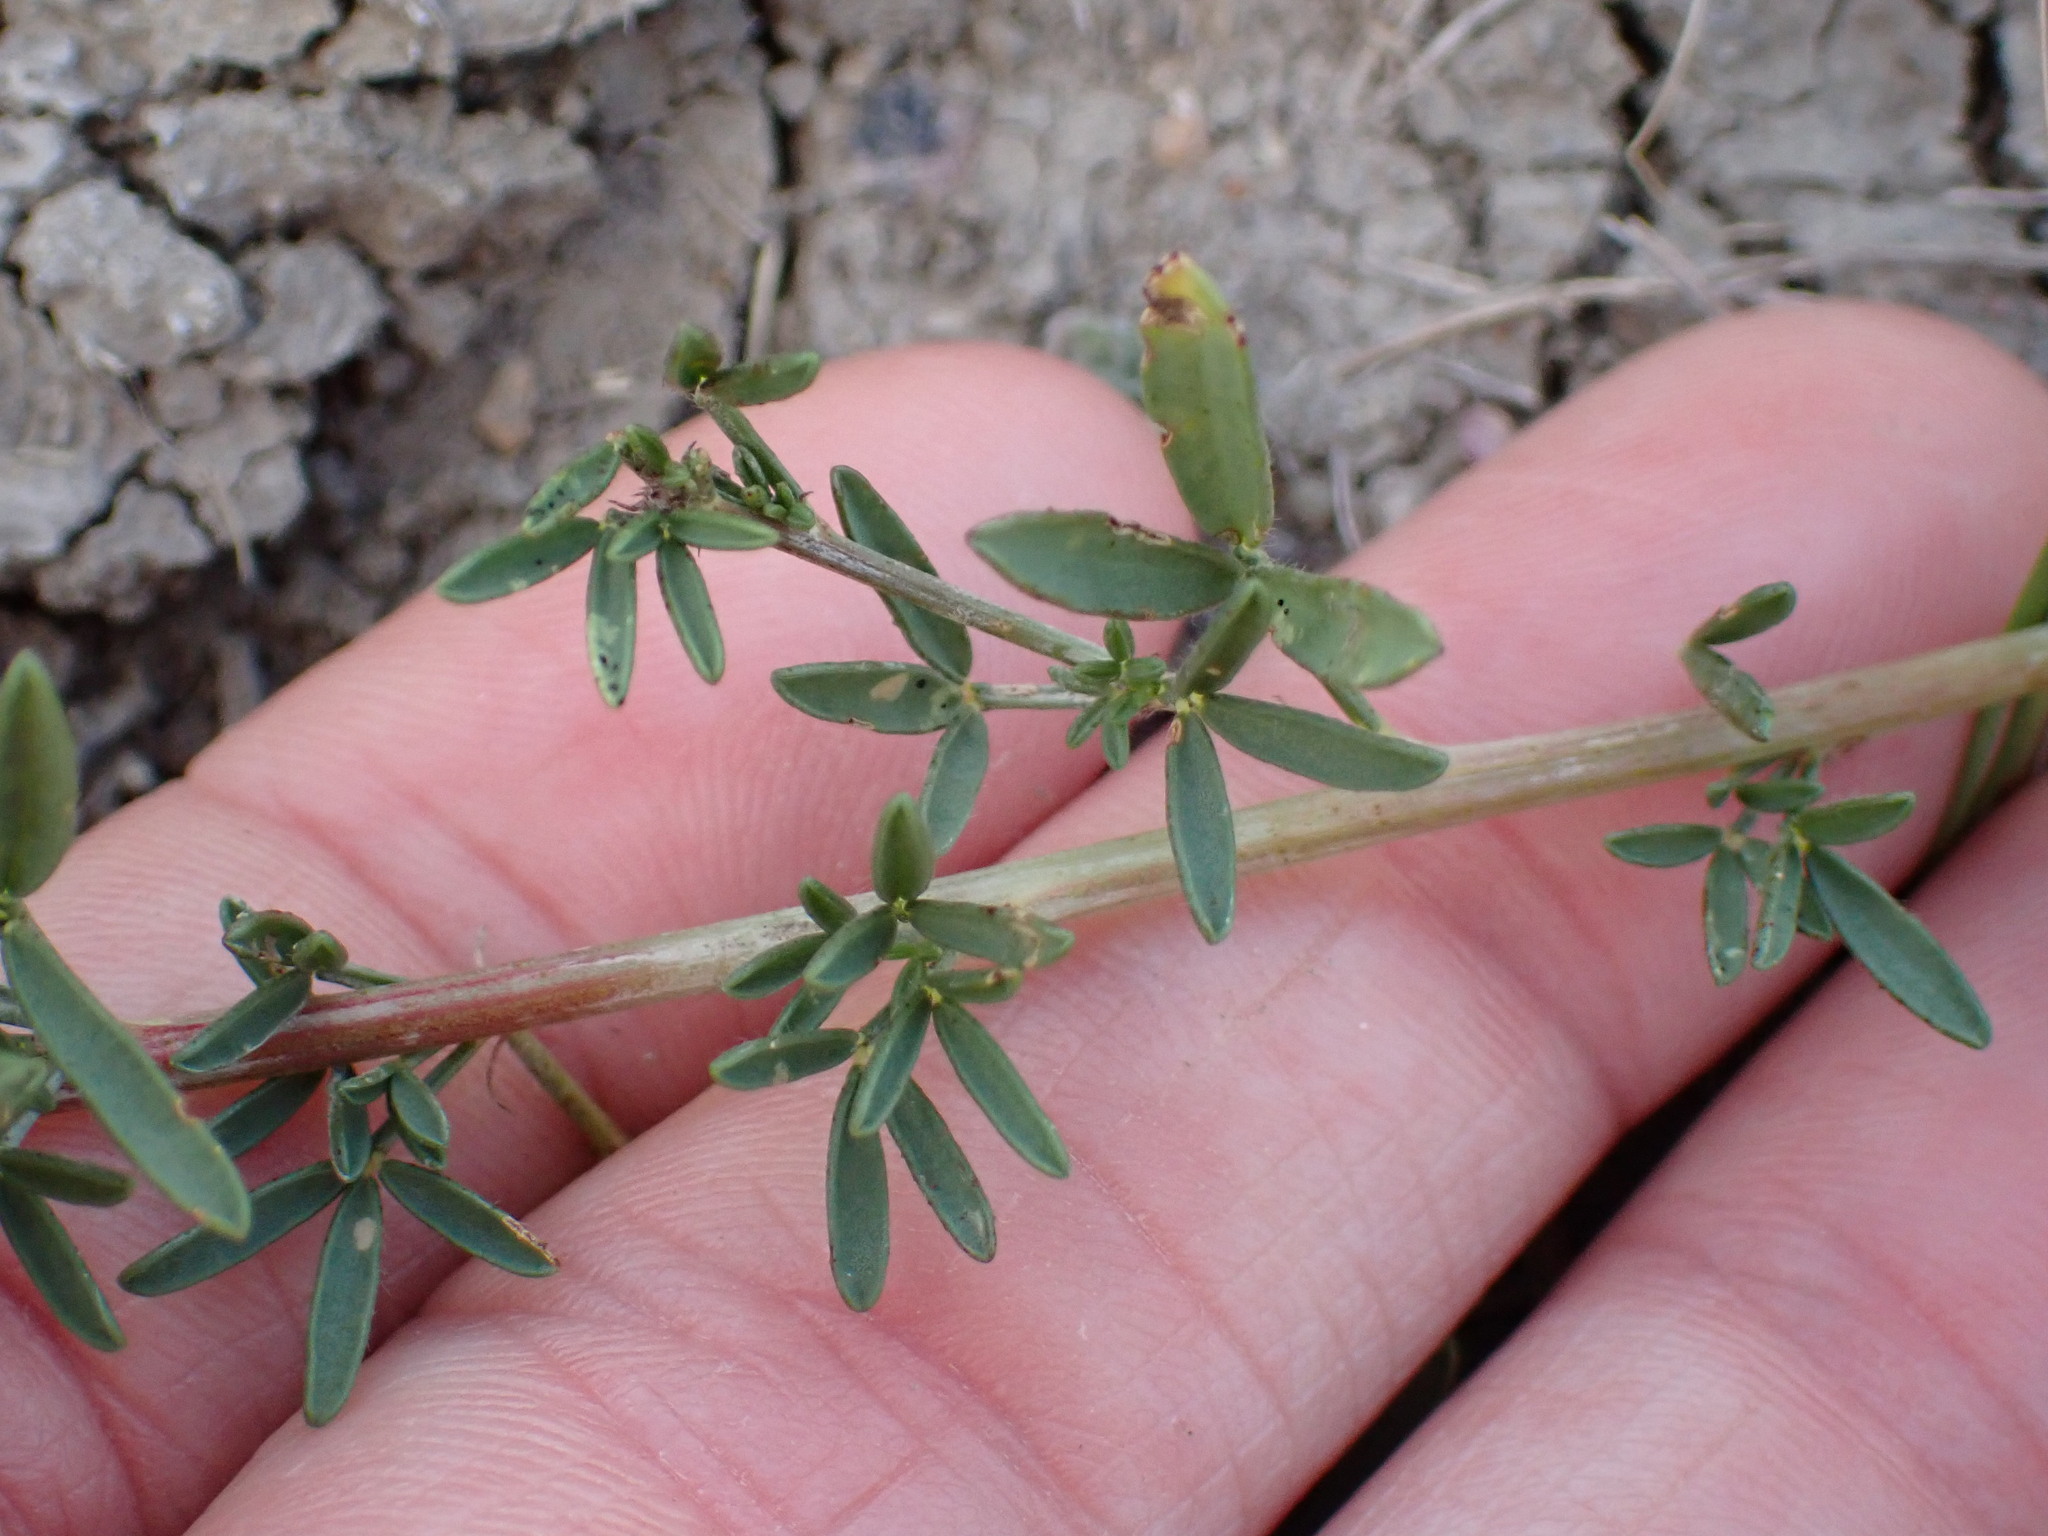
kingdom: Plantae
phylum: Tracheophyta
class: Magnoliopsida
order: Fabales
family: Fabaceae
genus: Dalea
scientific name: Dalea purpurea
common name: Purple prairie-clover
